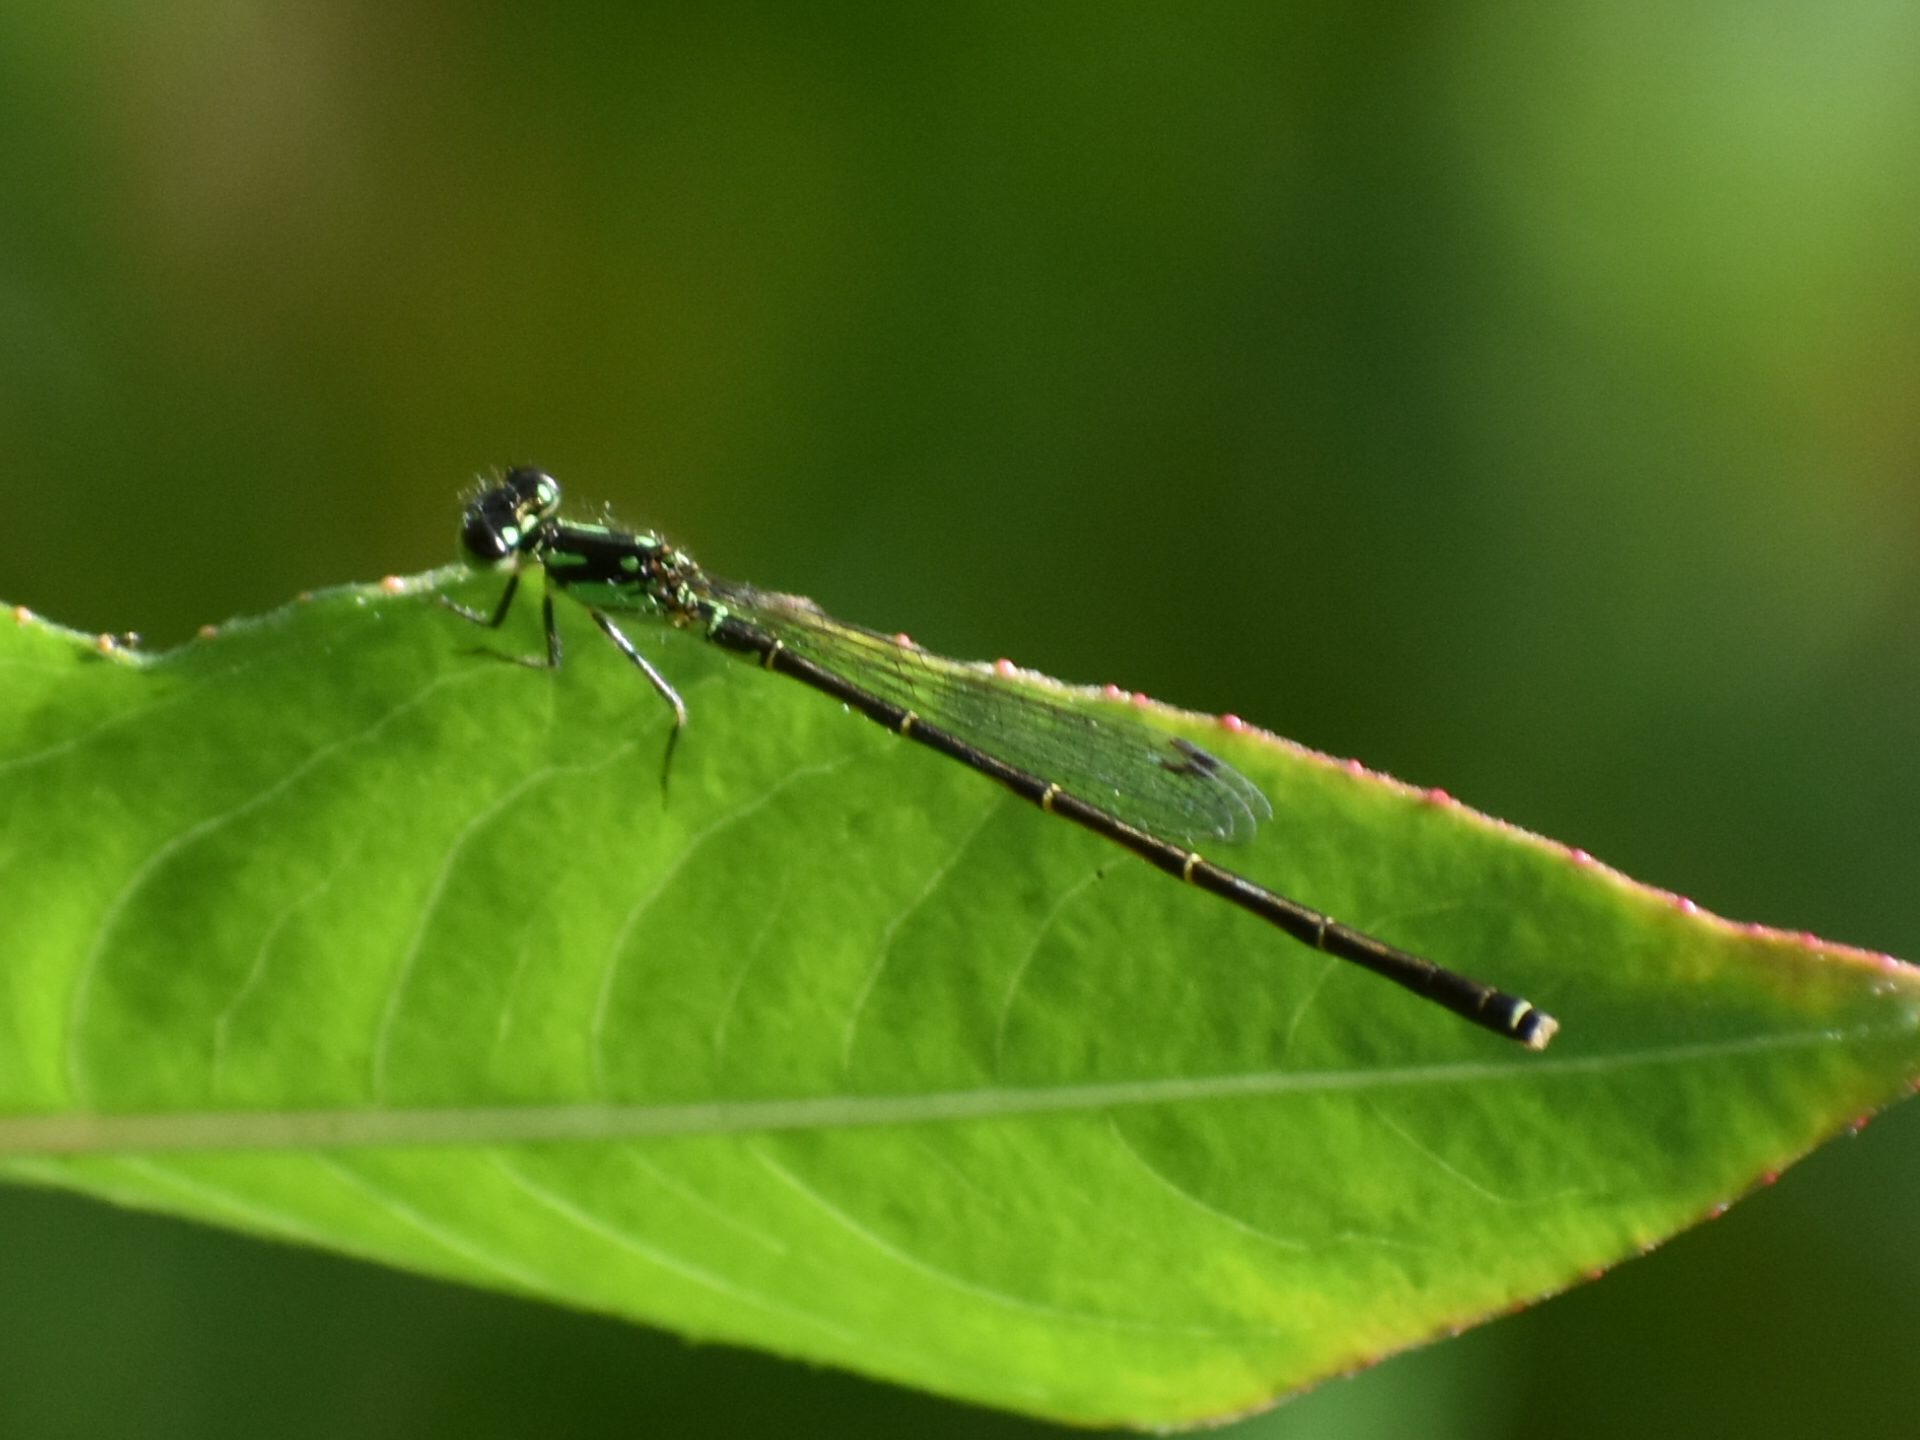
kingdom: Animalia
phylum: Arthropoda
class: Insecta
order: Odonata
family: Coenagrionidae
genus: Ischnura
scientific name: Ischnura posita
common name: Fragile forktail
